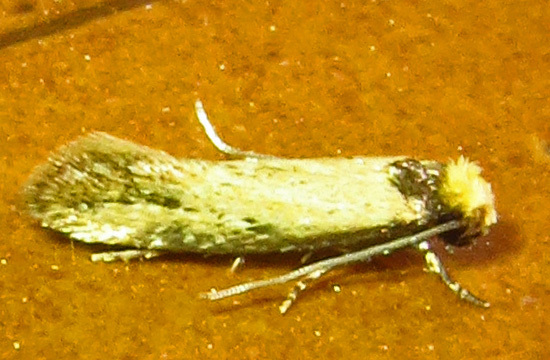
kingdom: Animalia
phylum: Arthropoda
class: Insecta
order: Lepidoptera
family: Meessiidae
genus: Homostinea
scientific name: Homostinea curviliniella
